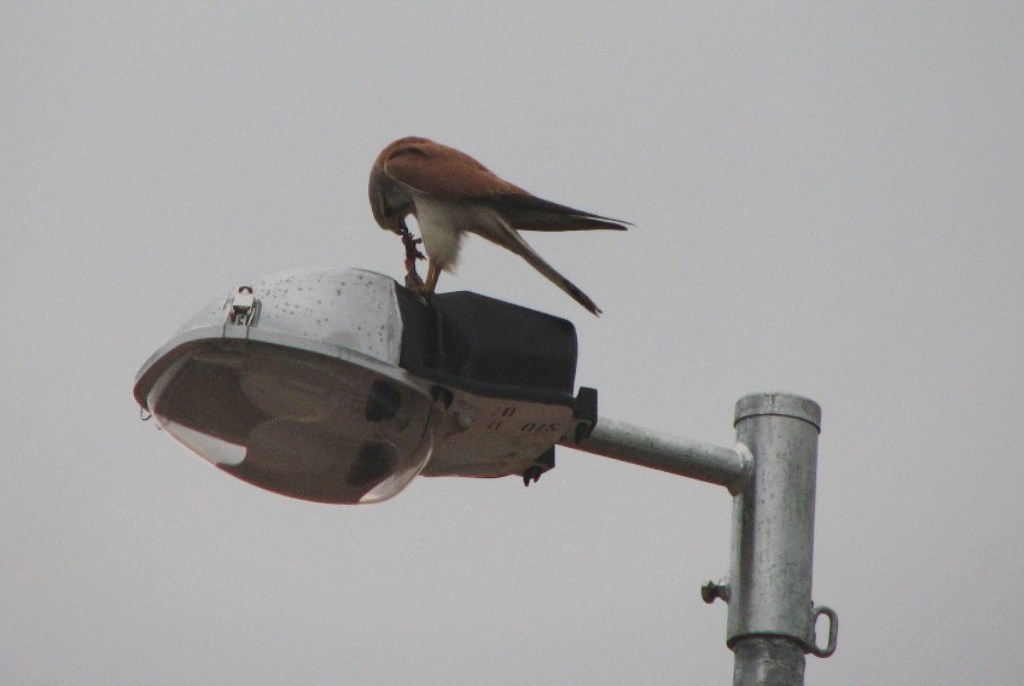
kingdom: Animalia
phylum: Chordata
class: Aves
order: Falconiformes
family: Falconidae
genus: Falco
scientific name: Falco cenchroides
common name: Nankeen kestrel
